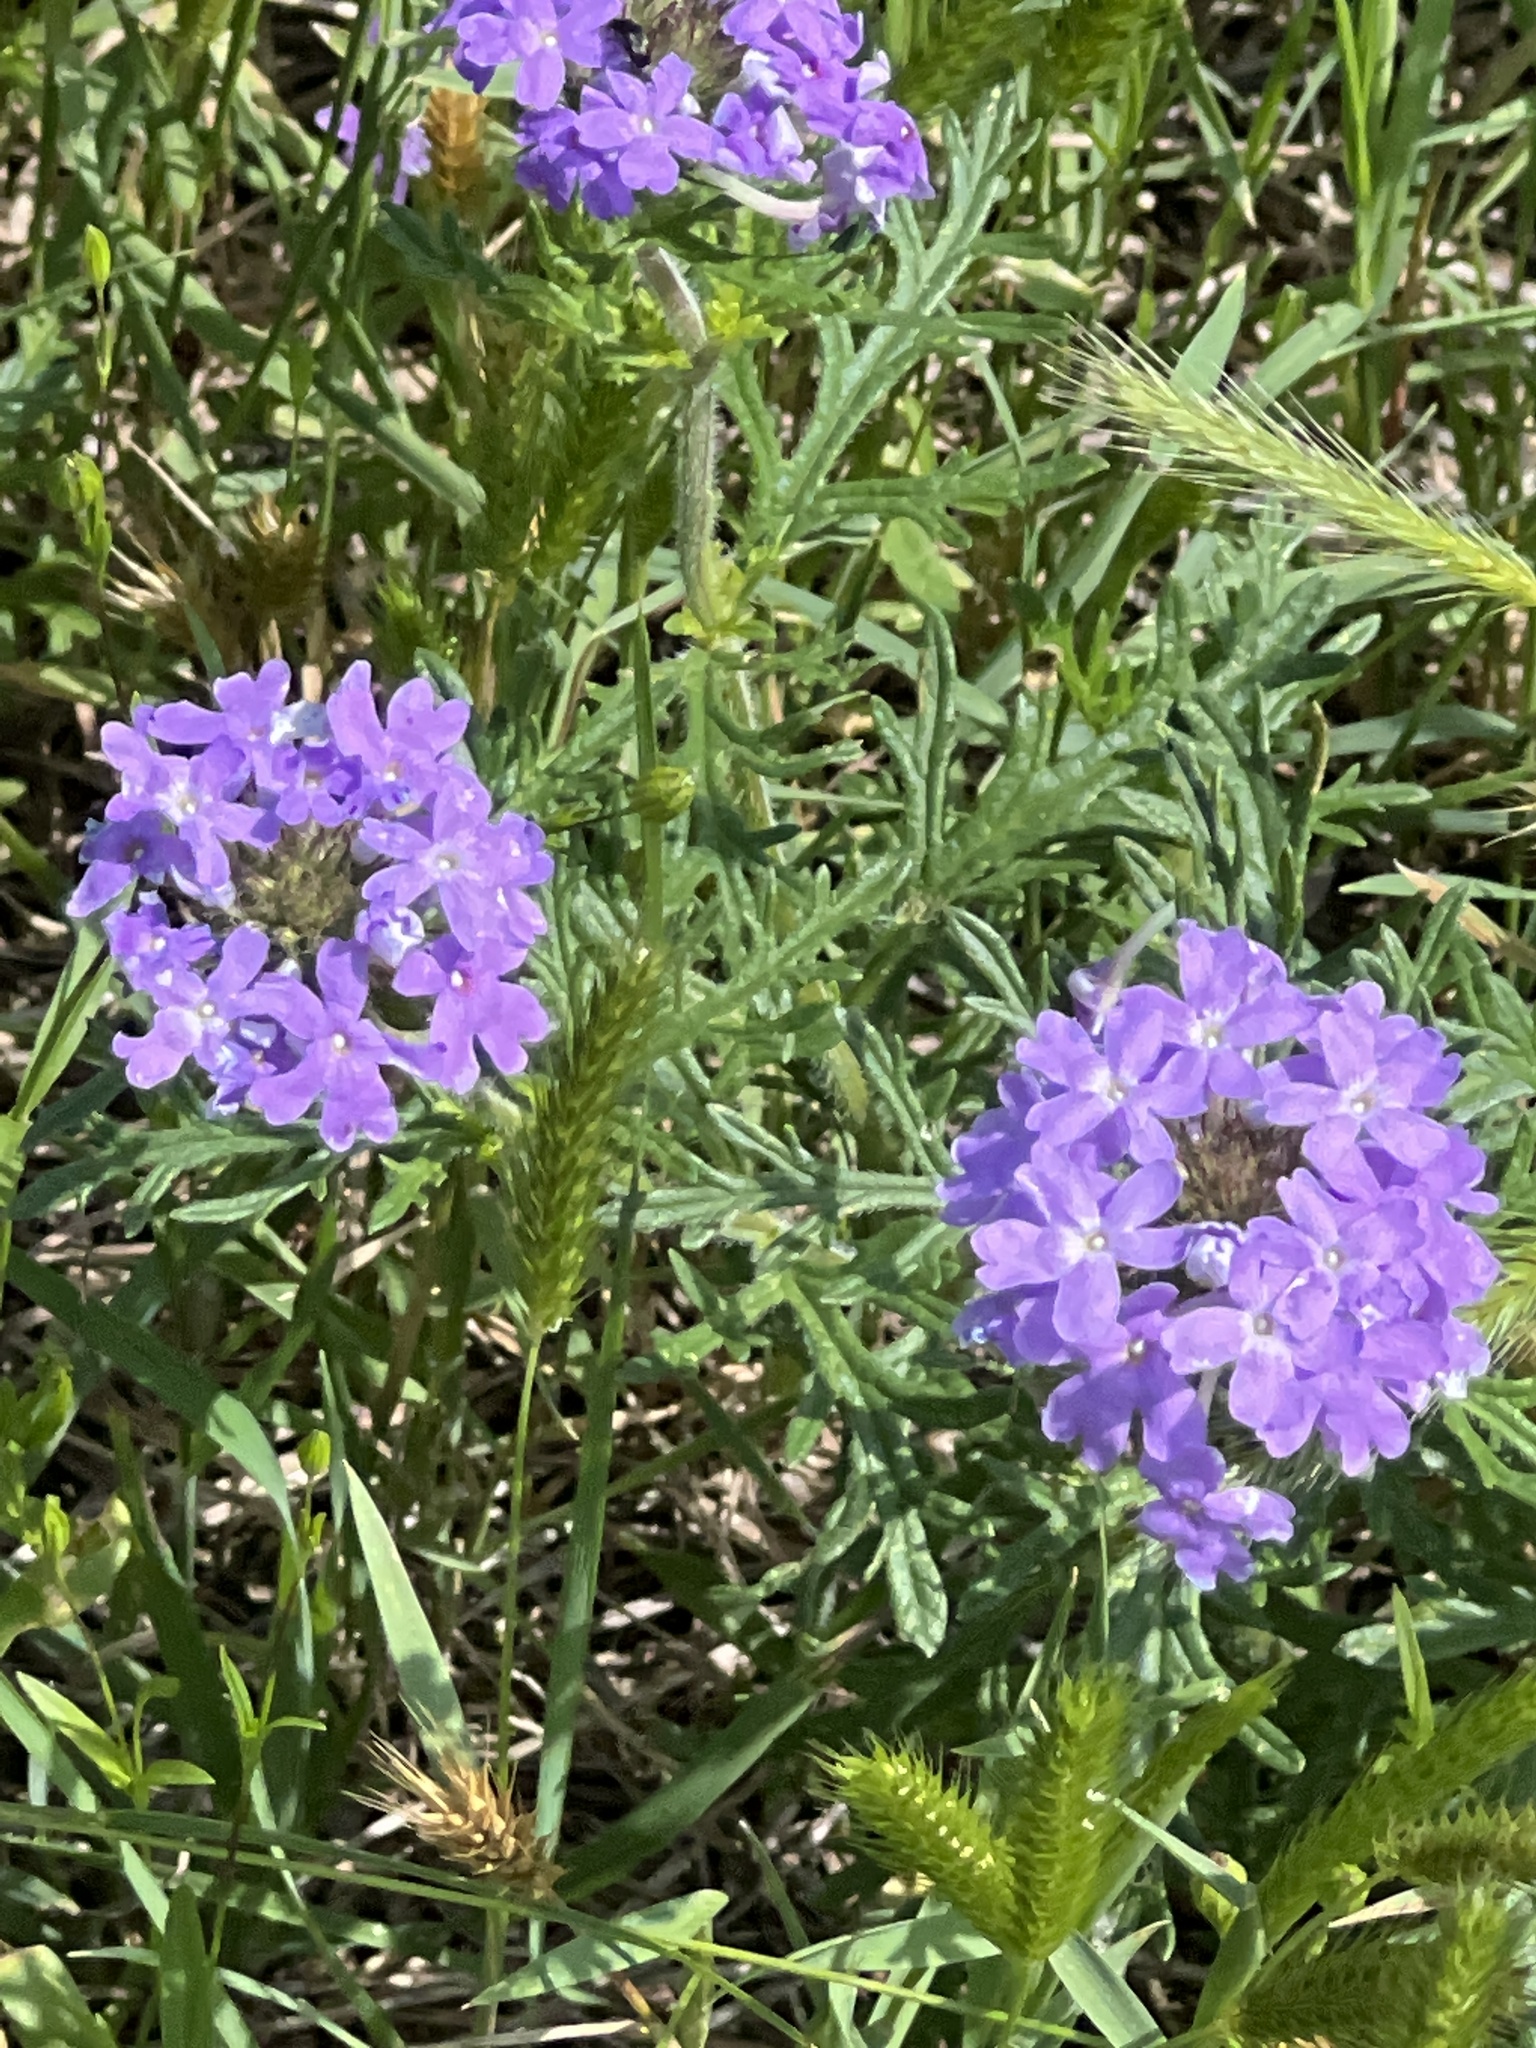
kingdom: Plantae
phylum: Tracheophyta
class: Magnoliopsida
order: Lamiales
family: Verbenaceae
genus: Verbena
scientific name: Verbena bipinnatifida
